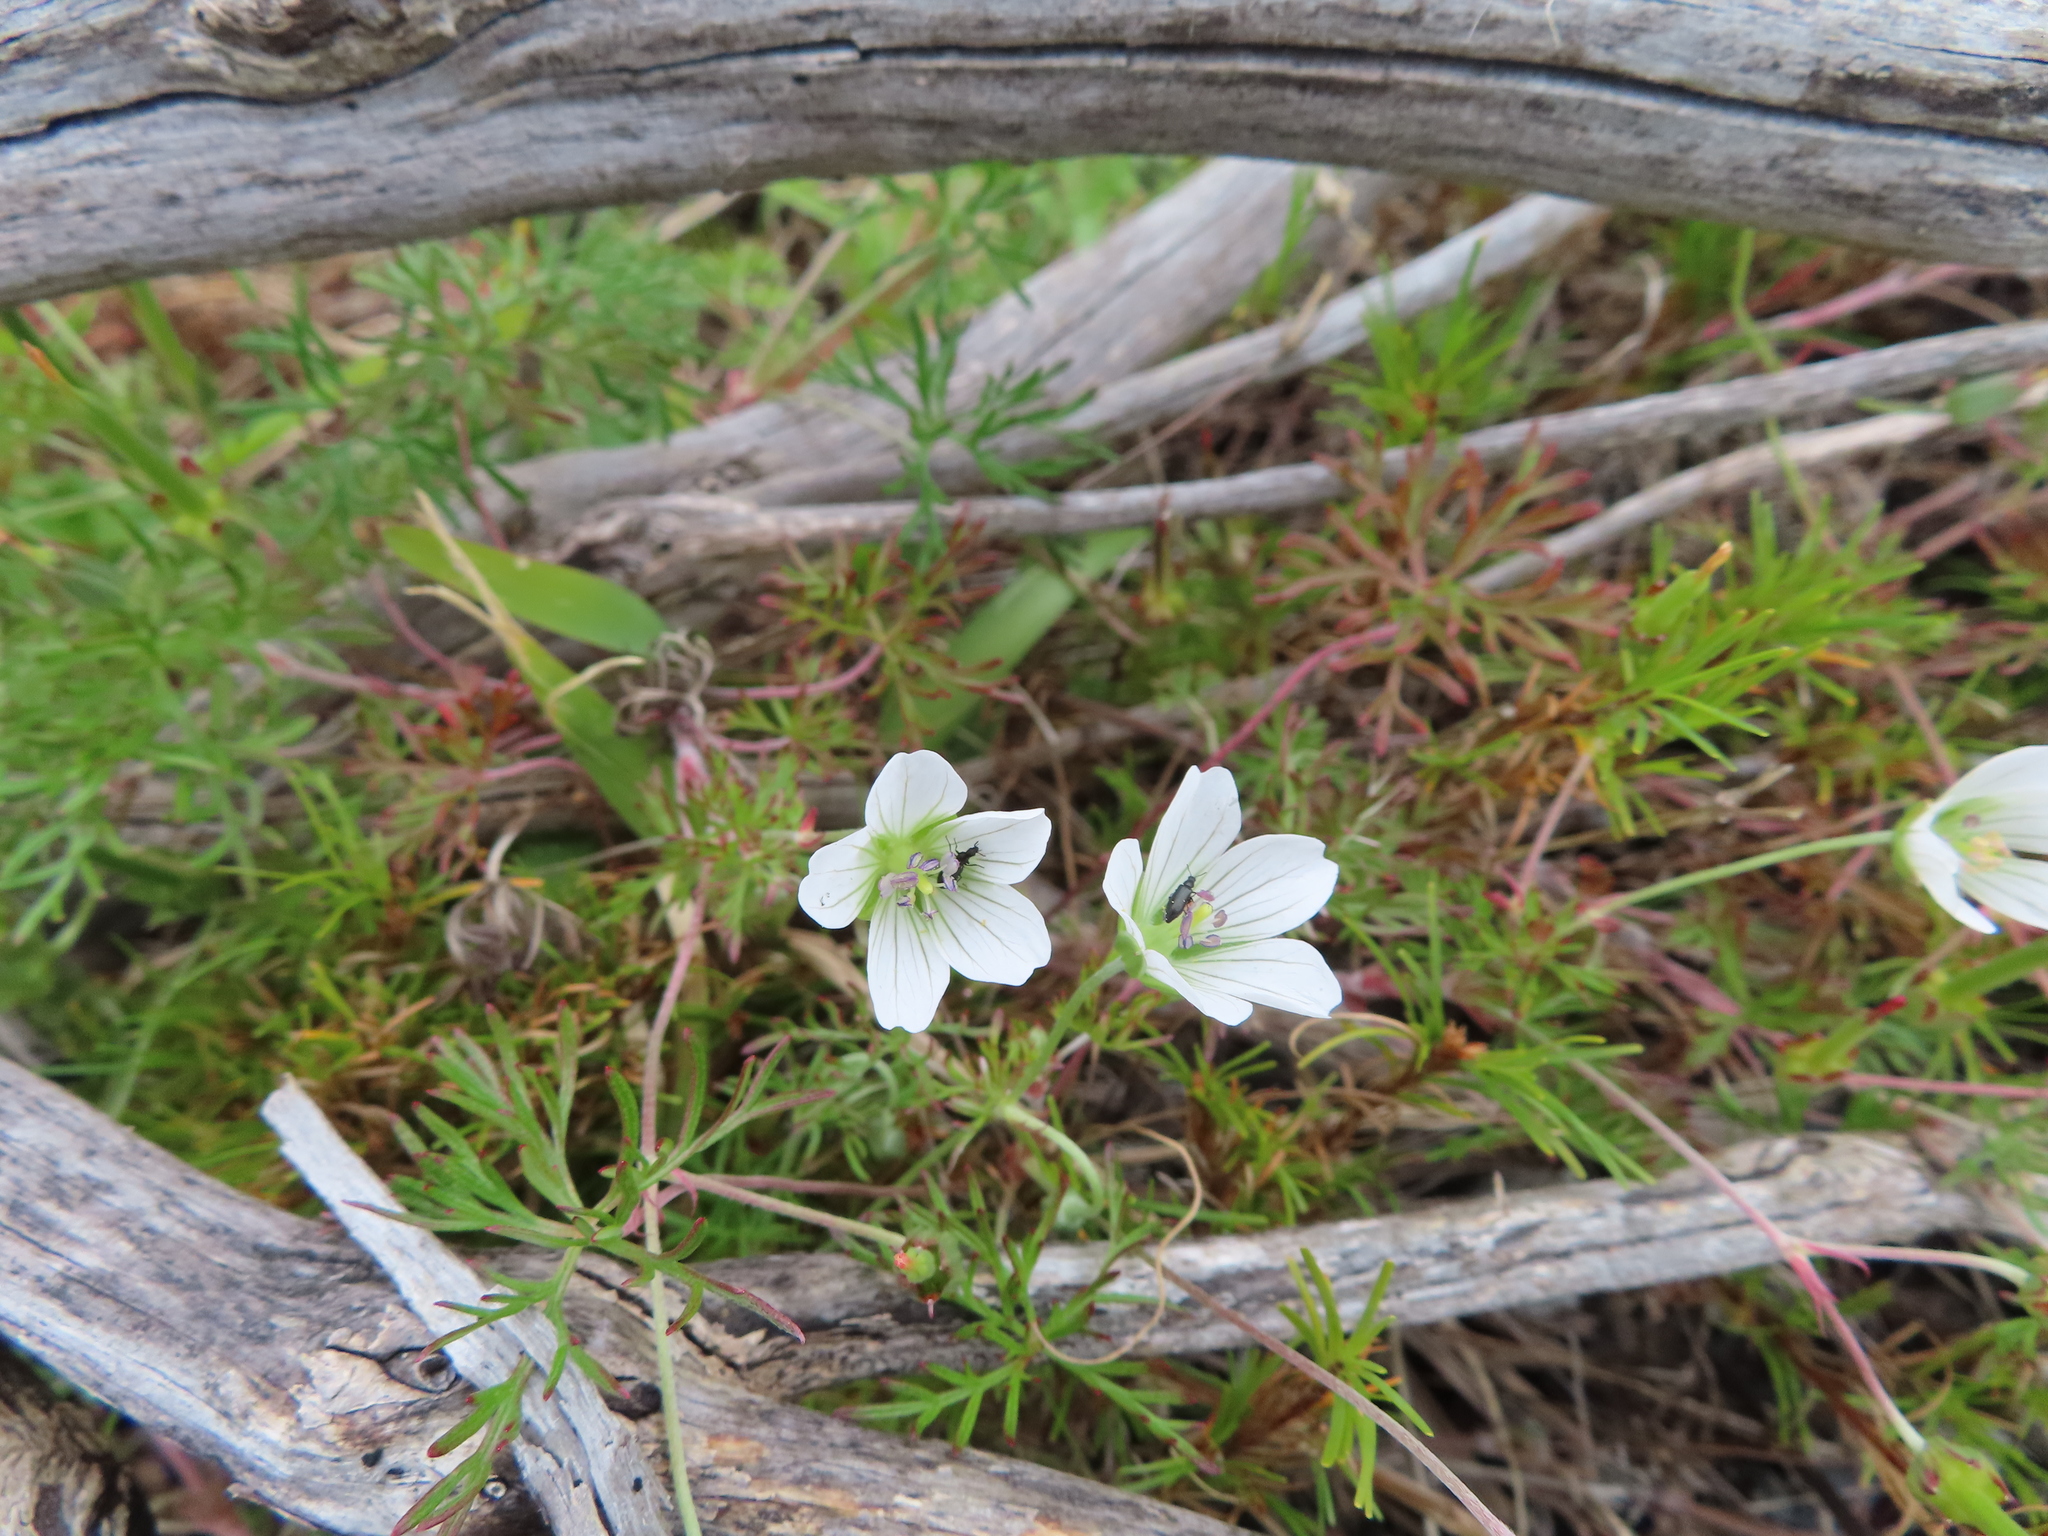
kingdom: Plantae
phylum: Tracheophyta
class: Magnoliopsida
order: Geraniales
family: Geraniaceae
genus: Geranium
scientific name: Geranium incanum
